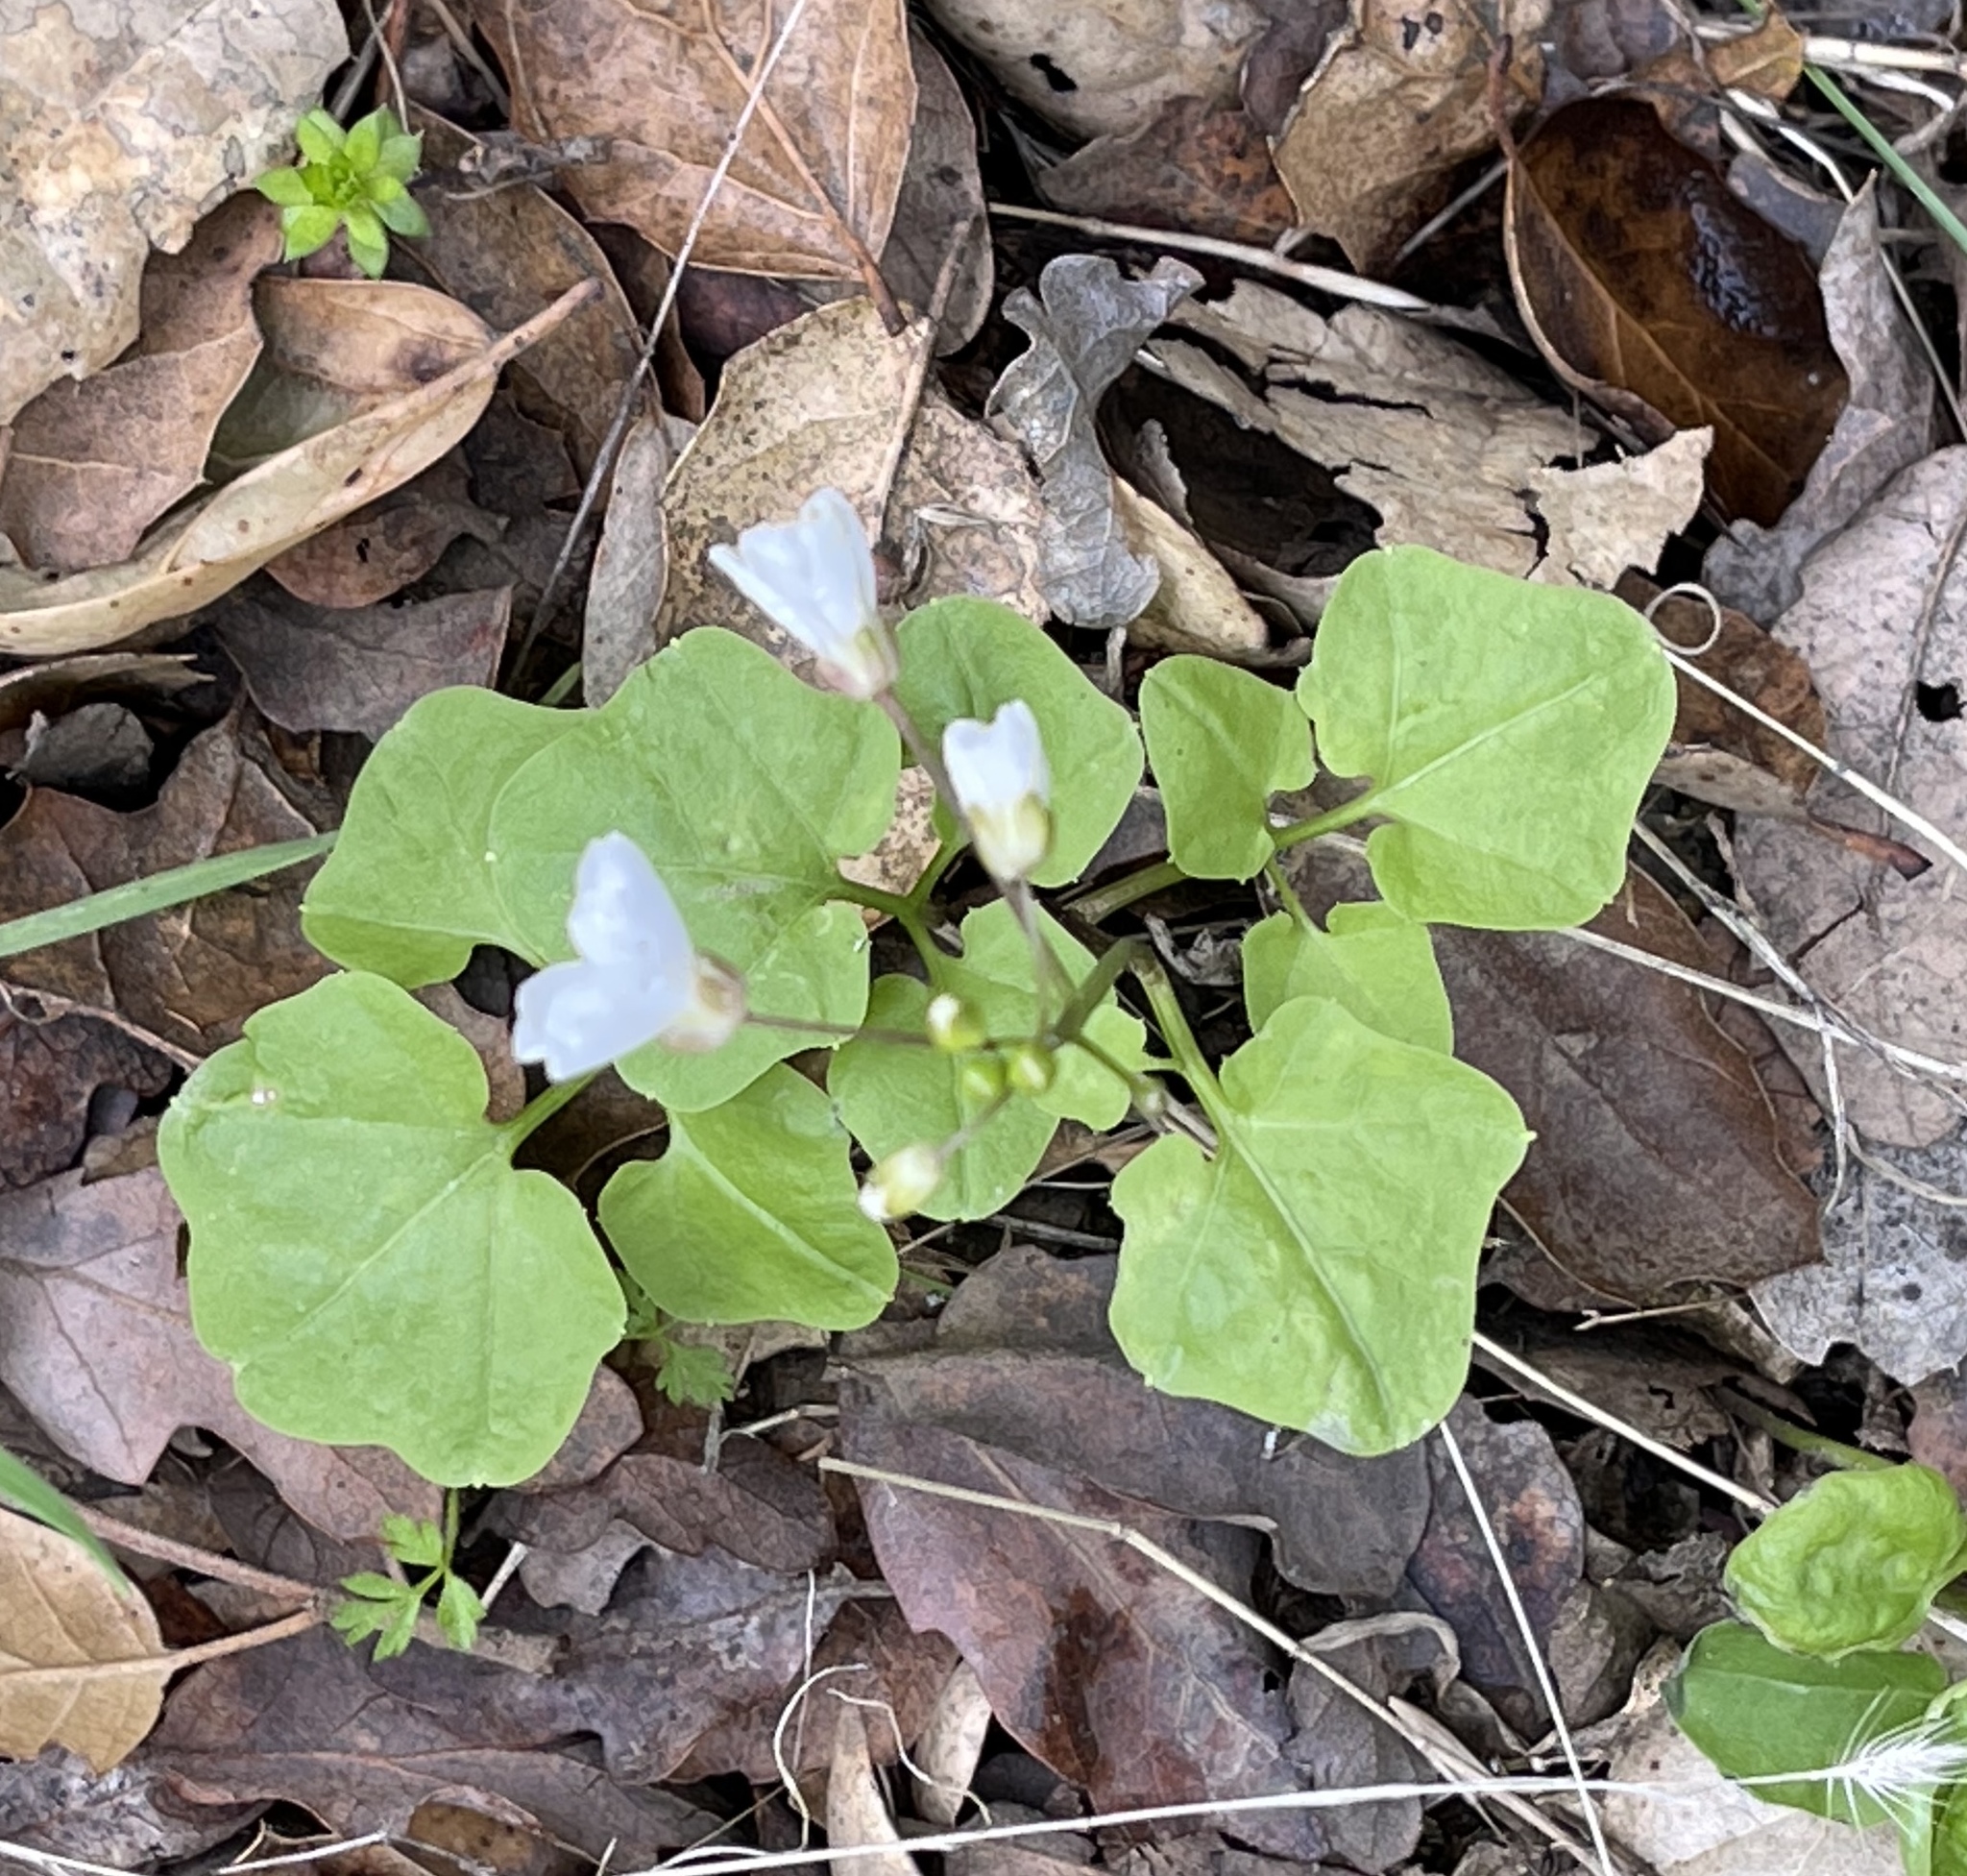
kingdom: Plantae
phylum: Tracheophyta
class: Magnoliopsida
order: Brassicales
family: Brassicaceae
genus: Cardamine
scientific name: Cardamine californica
